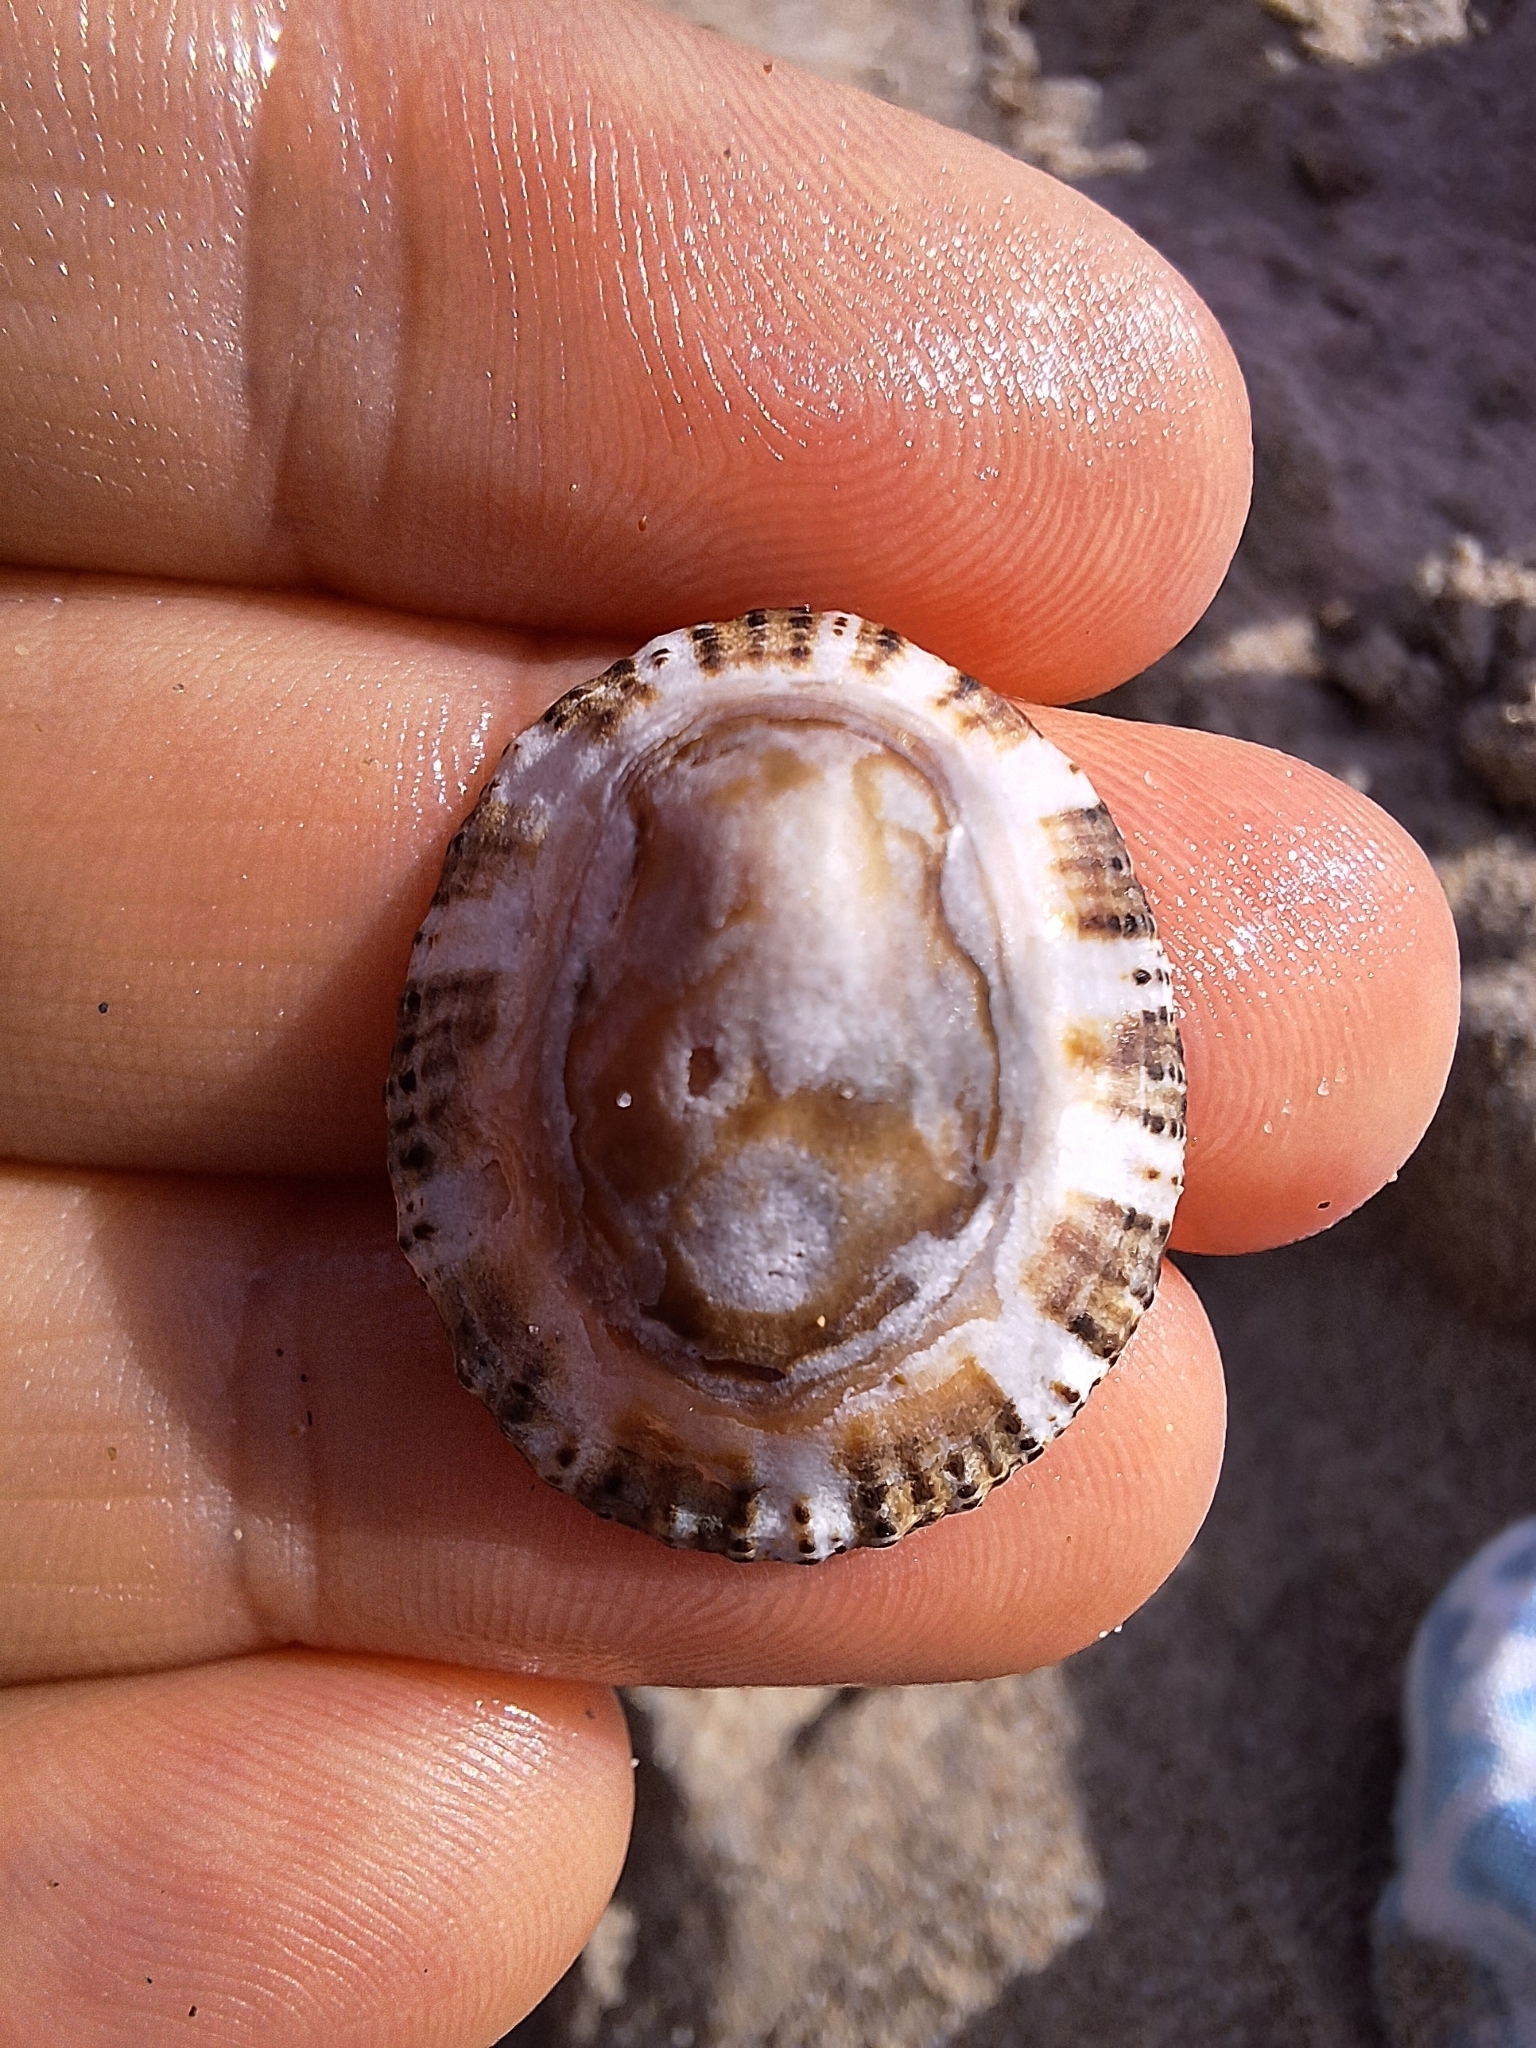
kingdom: Animalia
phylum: Mollusca
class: Gastropoda
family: Patellidae
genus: Patella
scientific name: Patella rustica
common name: Lusitanian limpet
